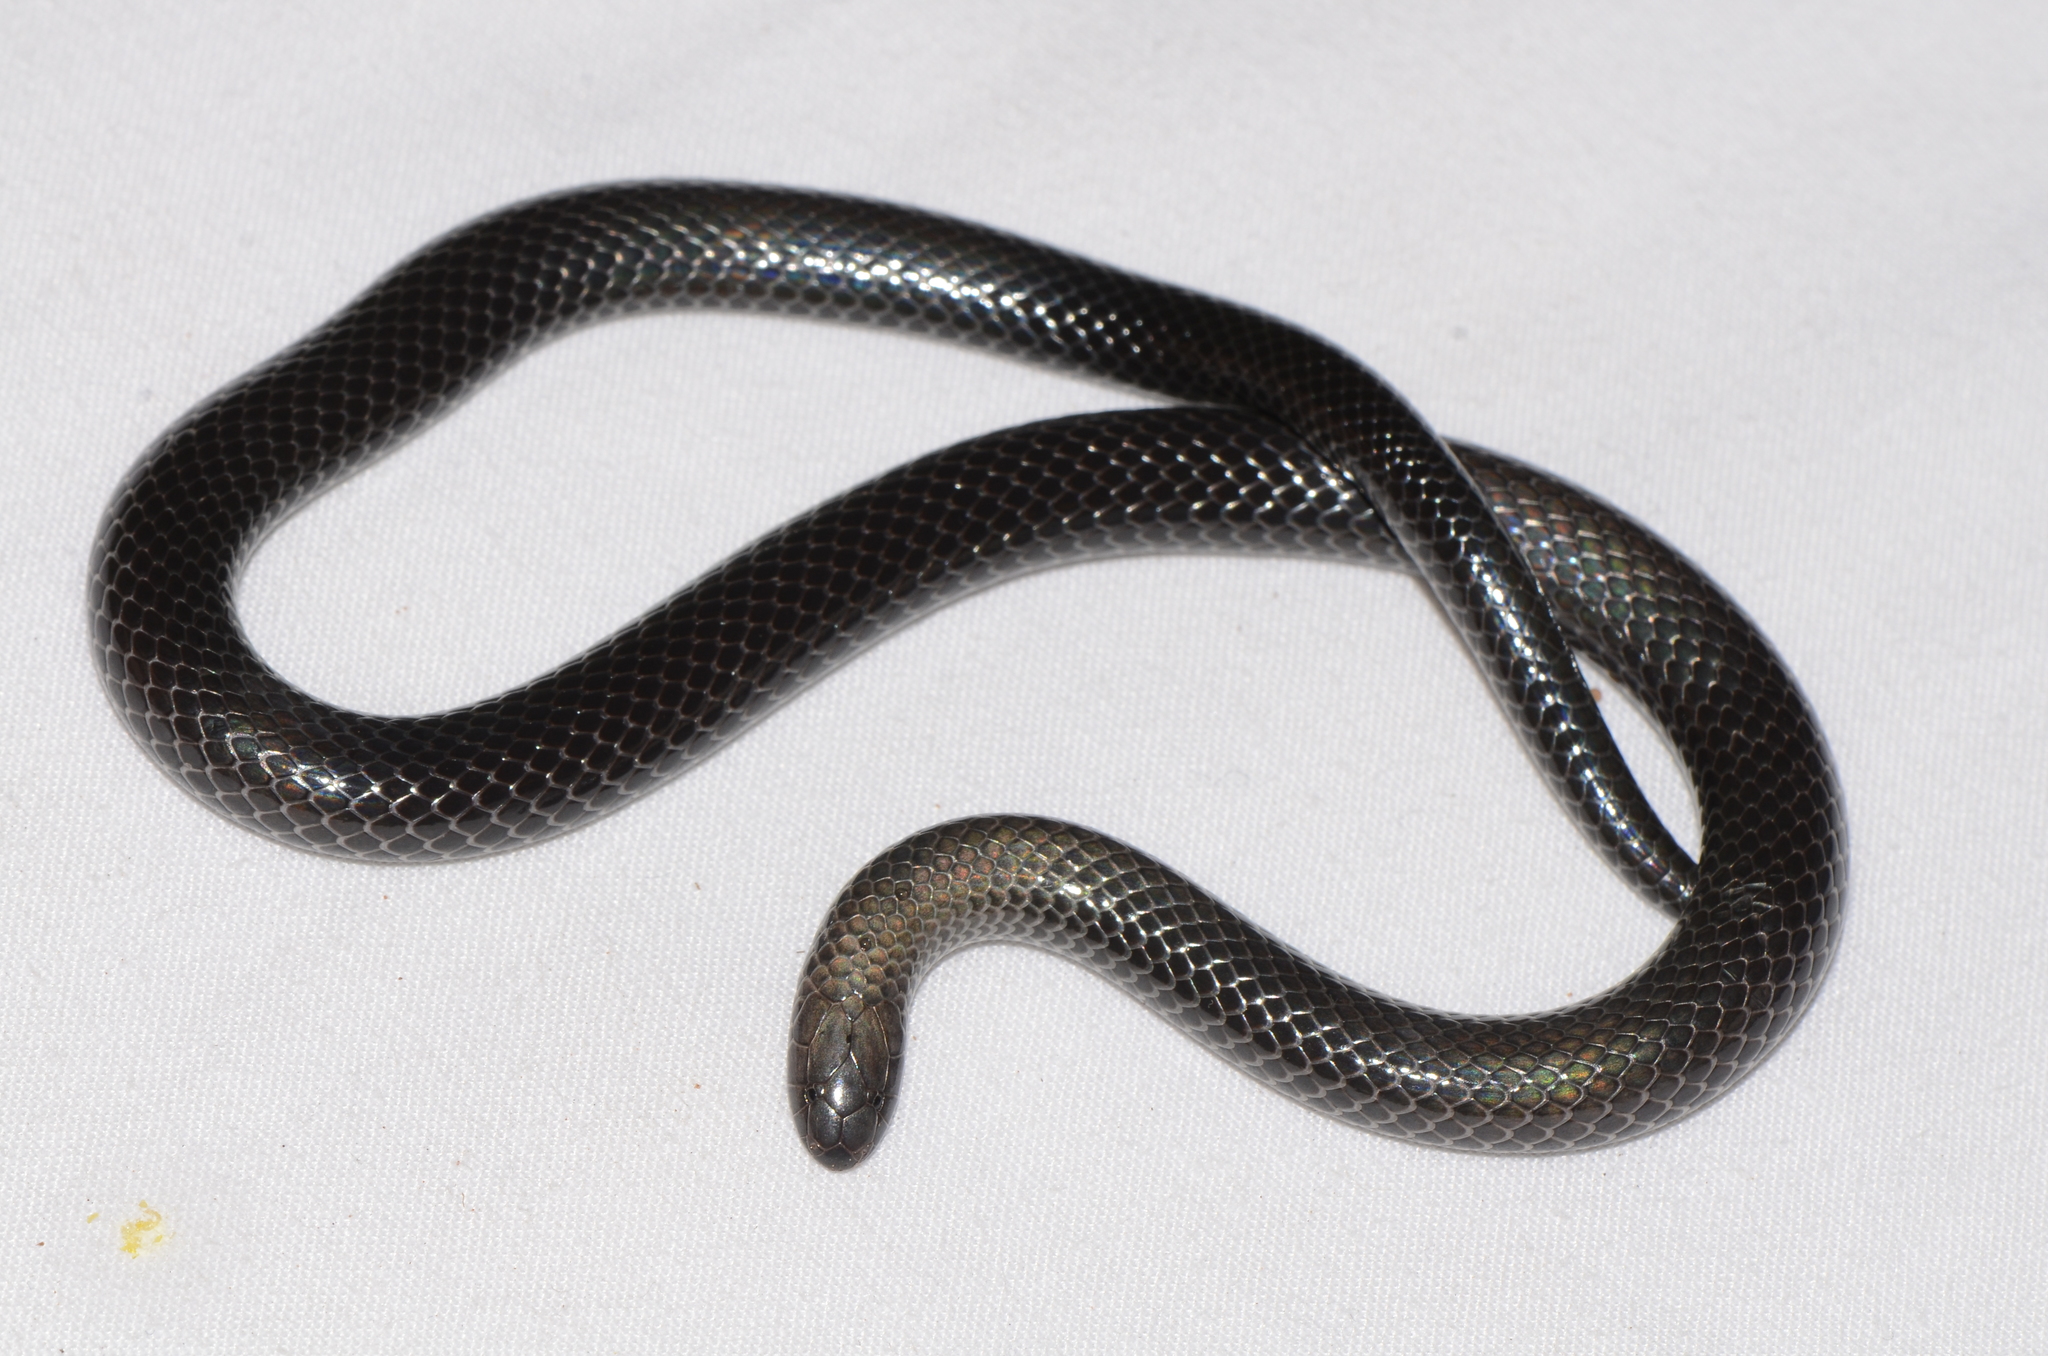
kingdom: Animalia
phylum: Chordata
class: Squamata
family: Atractaspididae
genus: Amblyodipsas
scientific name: Amblyodipsas microphthalma
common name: Eastern purple-glossed snake
